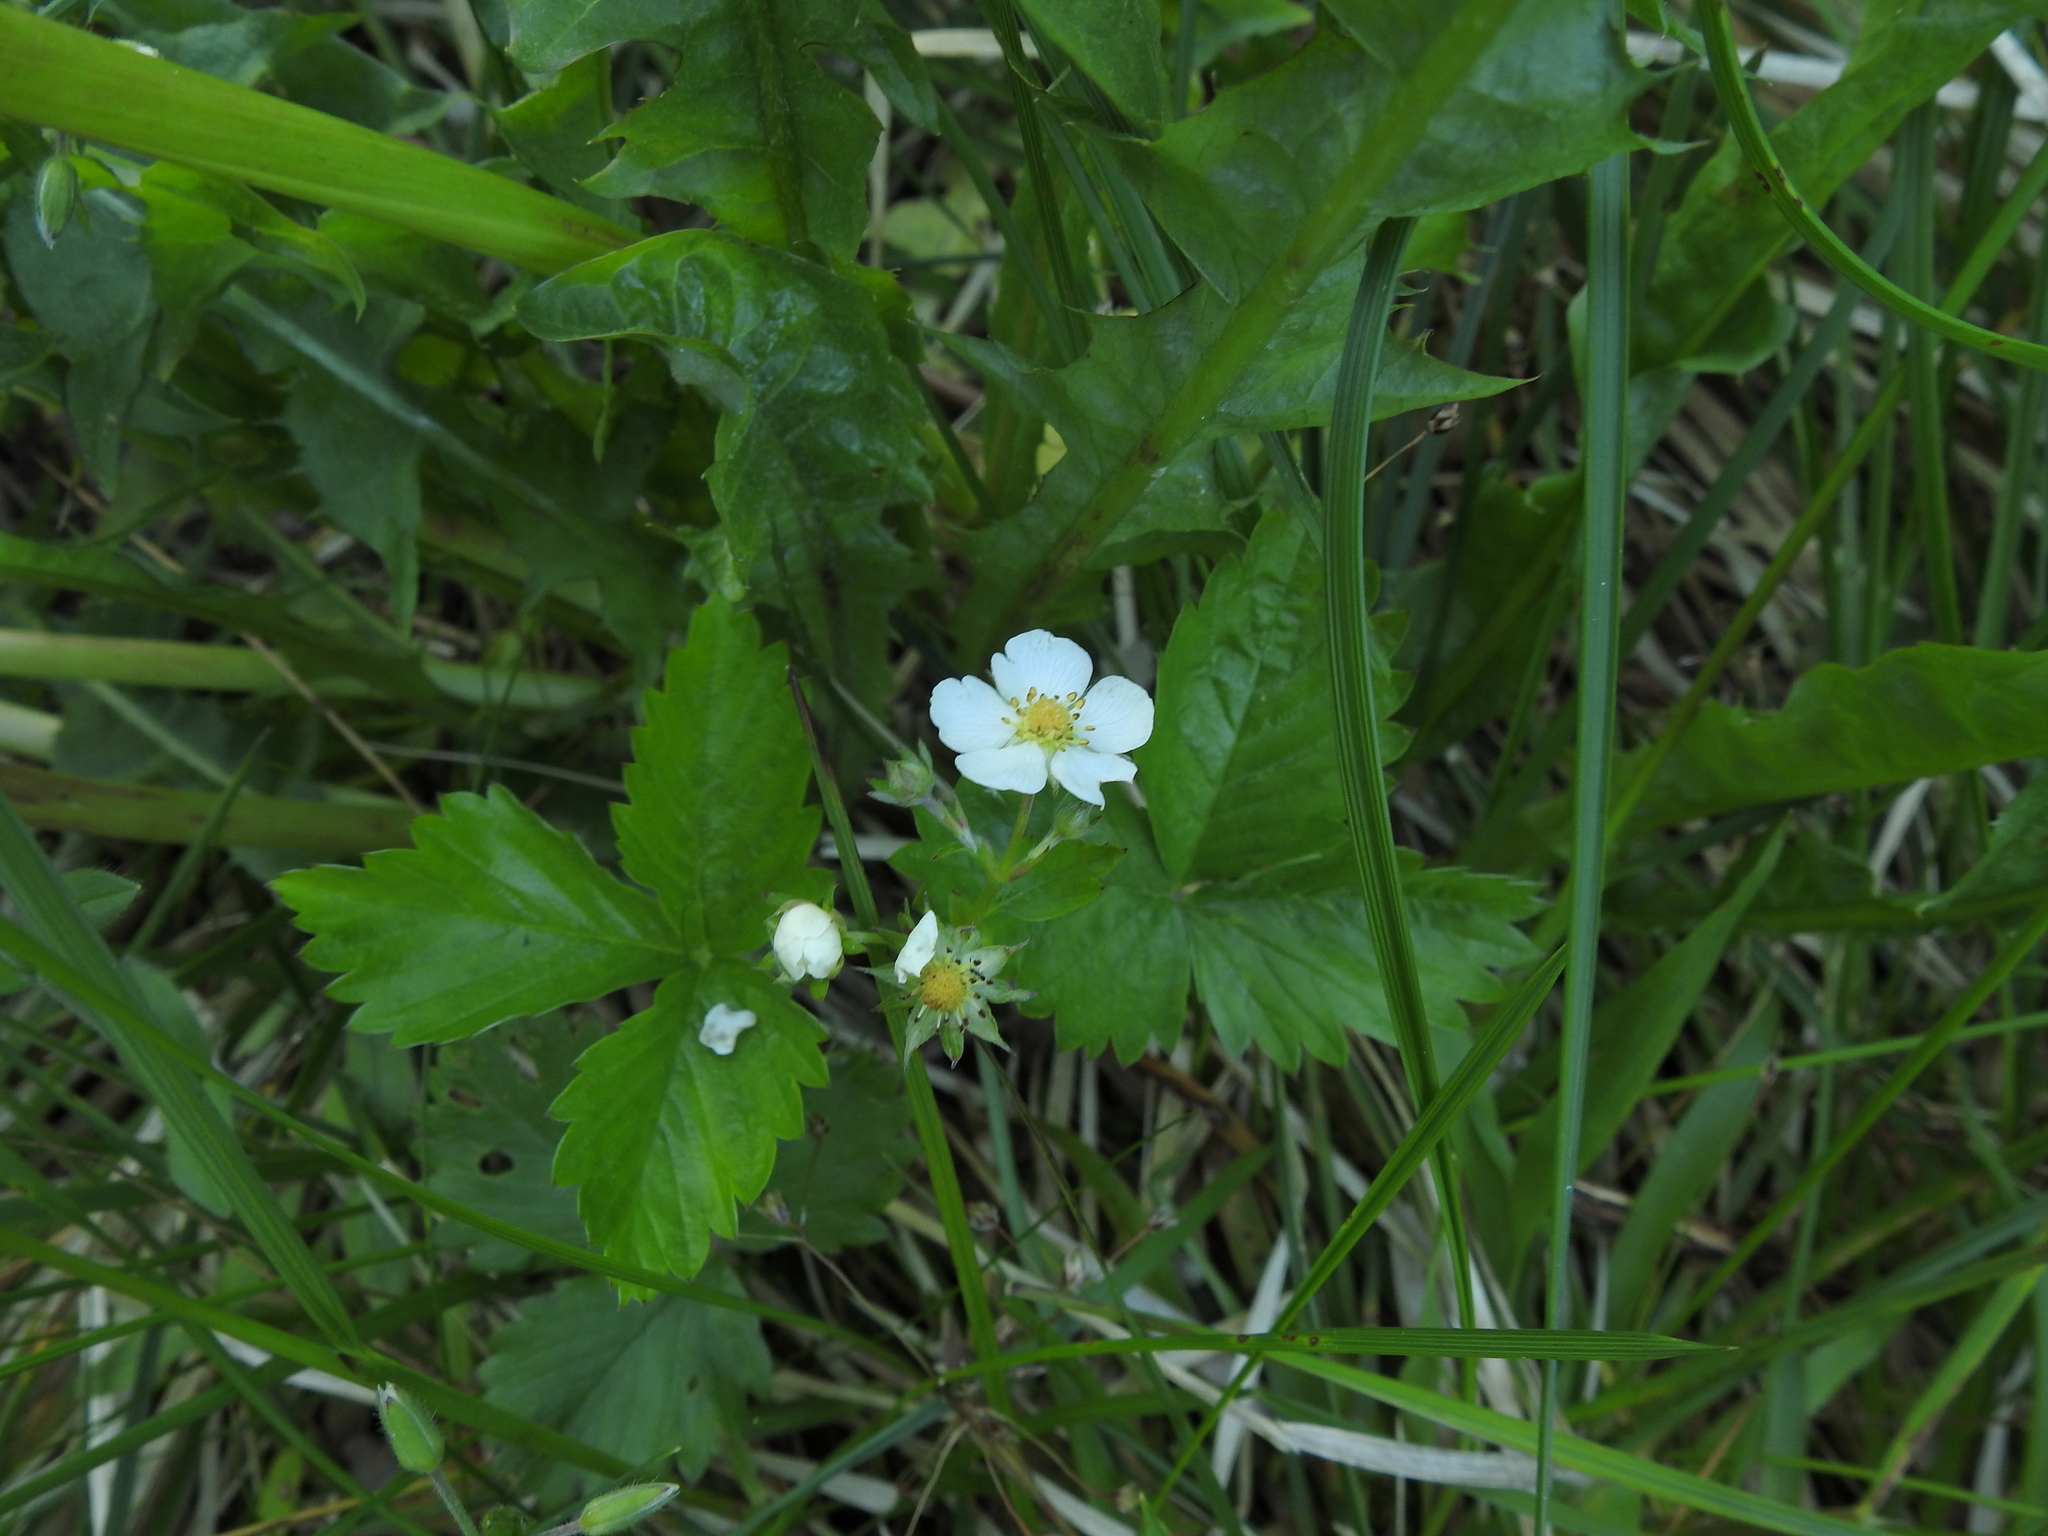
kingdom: Plantae
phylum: Tracheophyta
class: Magnoliopsida
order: Rosales
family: Rosaceae
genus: Fragaria
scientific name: Fragaria vesca
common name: Wild strawberry
